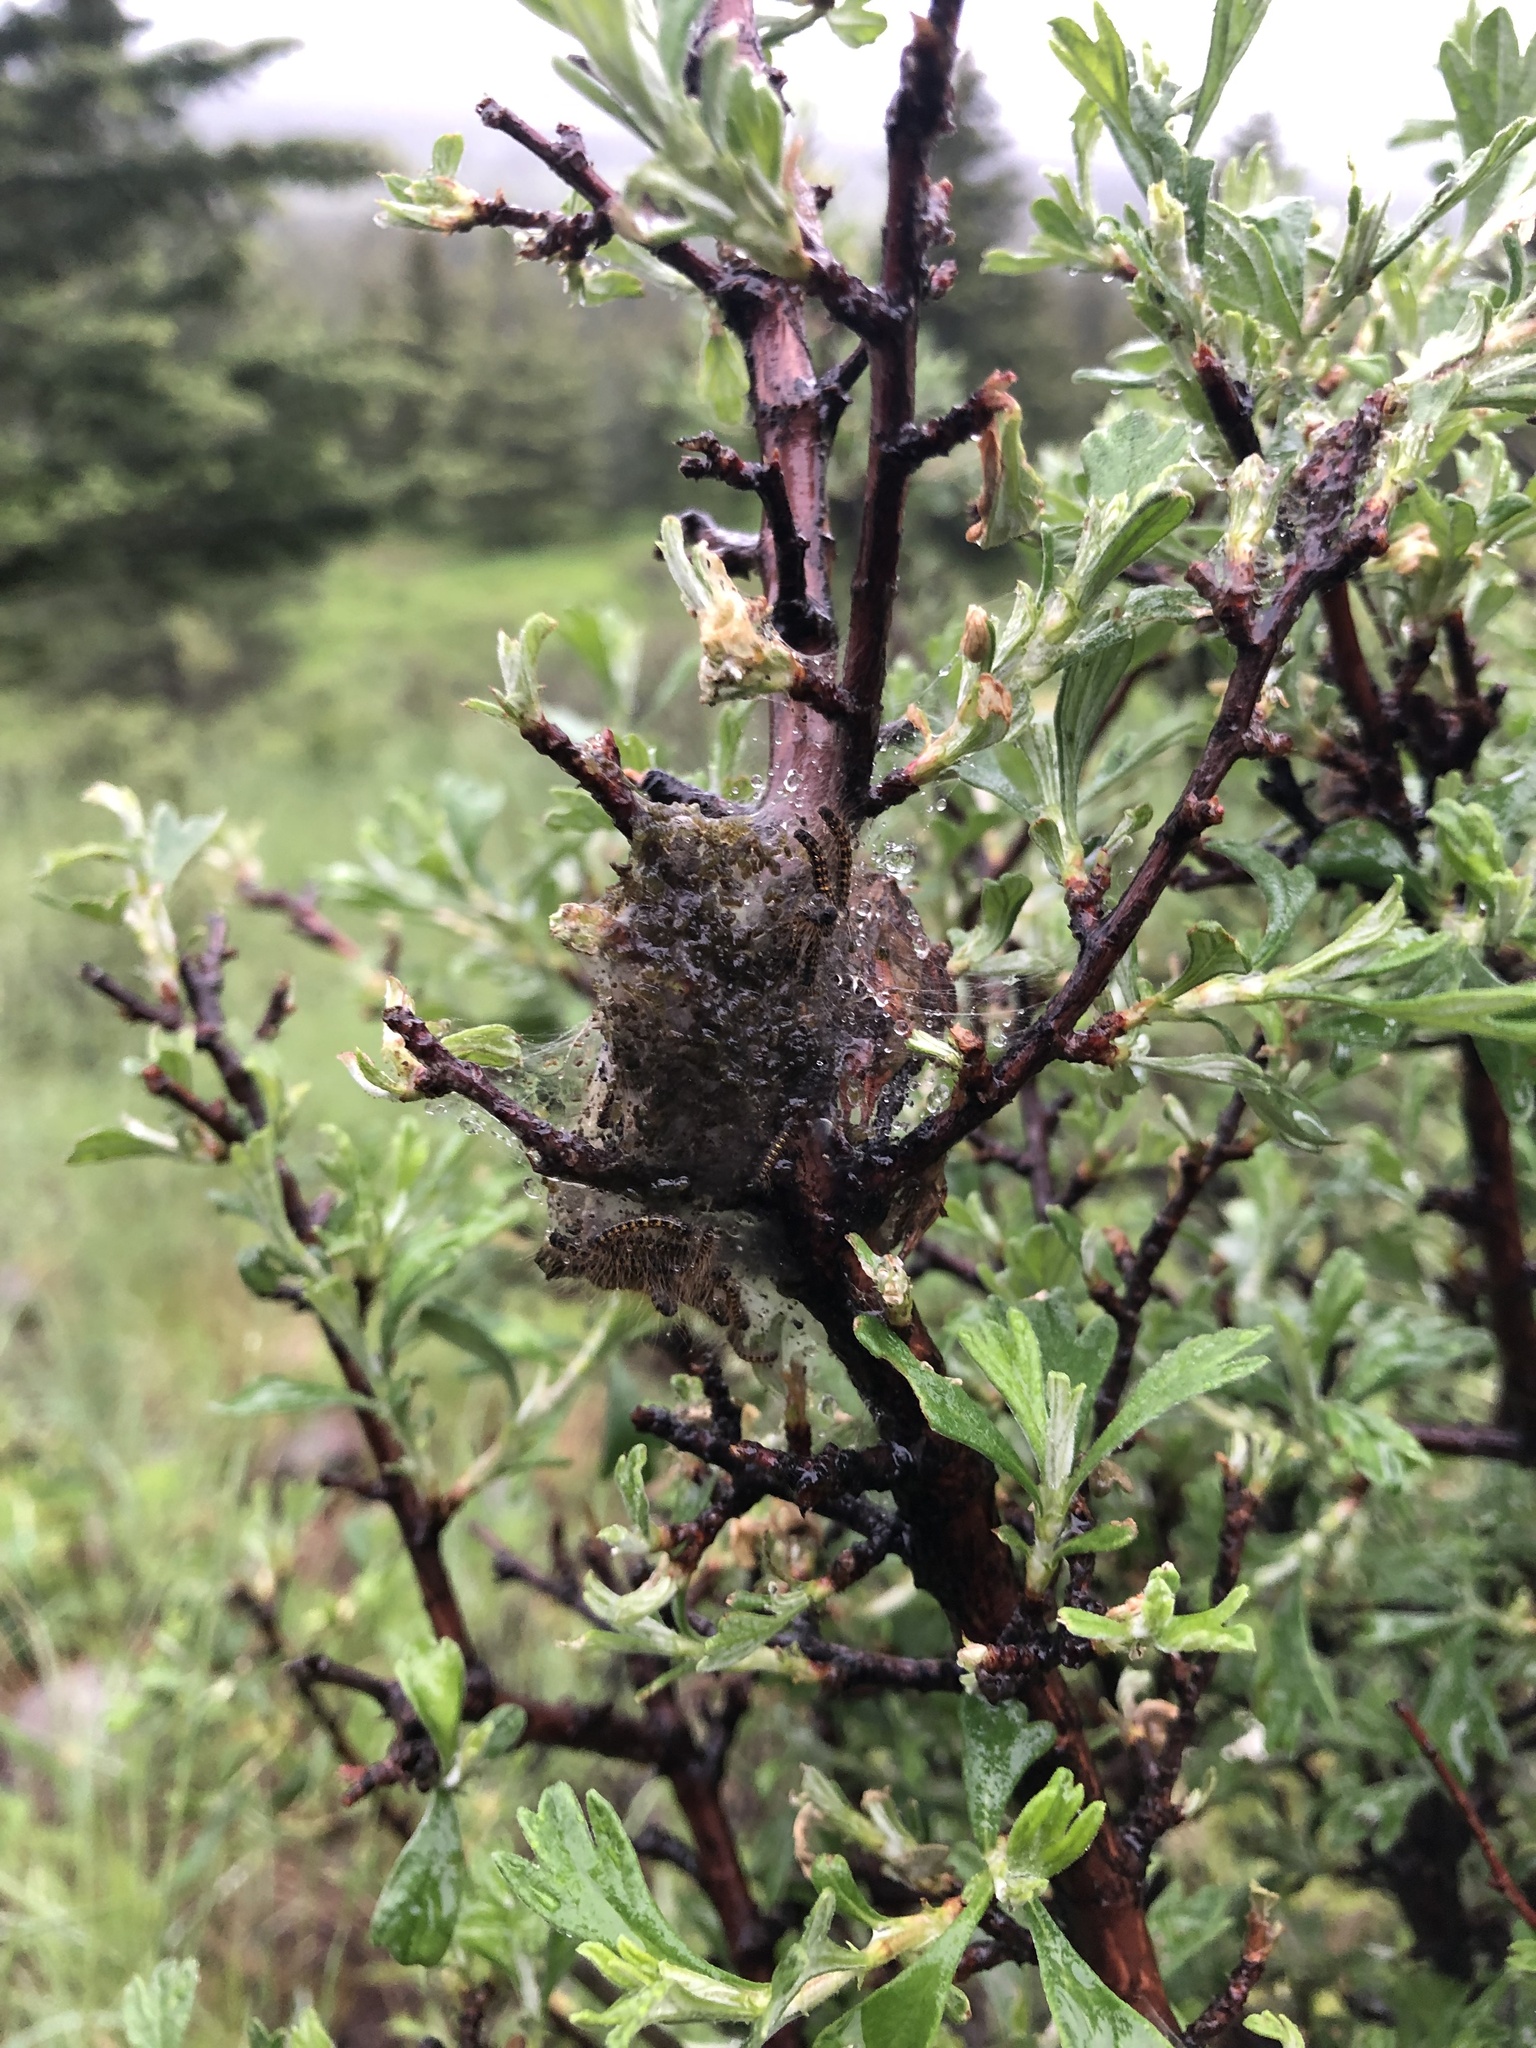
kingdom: Animalia
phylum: Arthropoda
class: Insecta
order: Lepidoptera
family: Lasiocampidae
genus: Malacosoma
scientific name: Malacosoma californica
